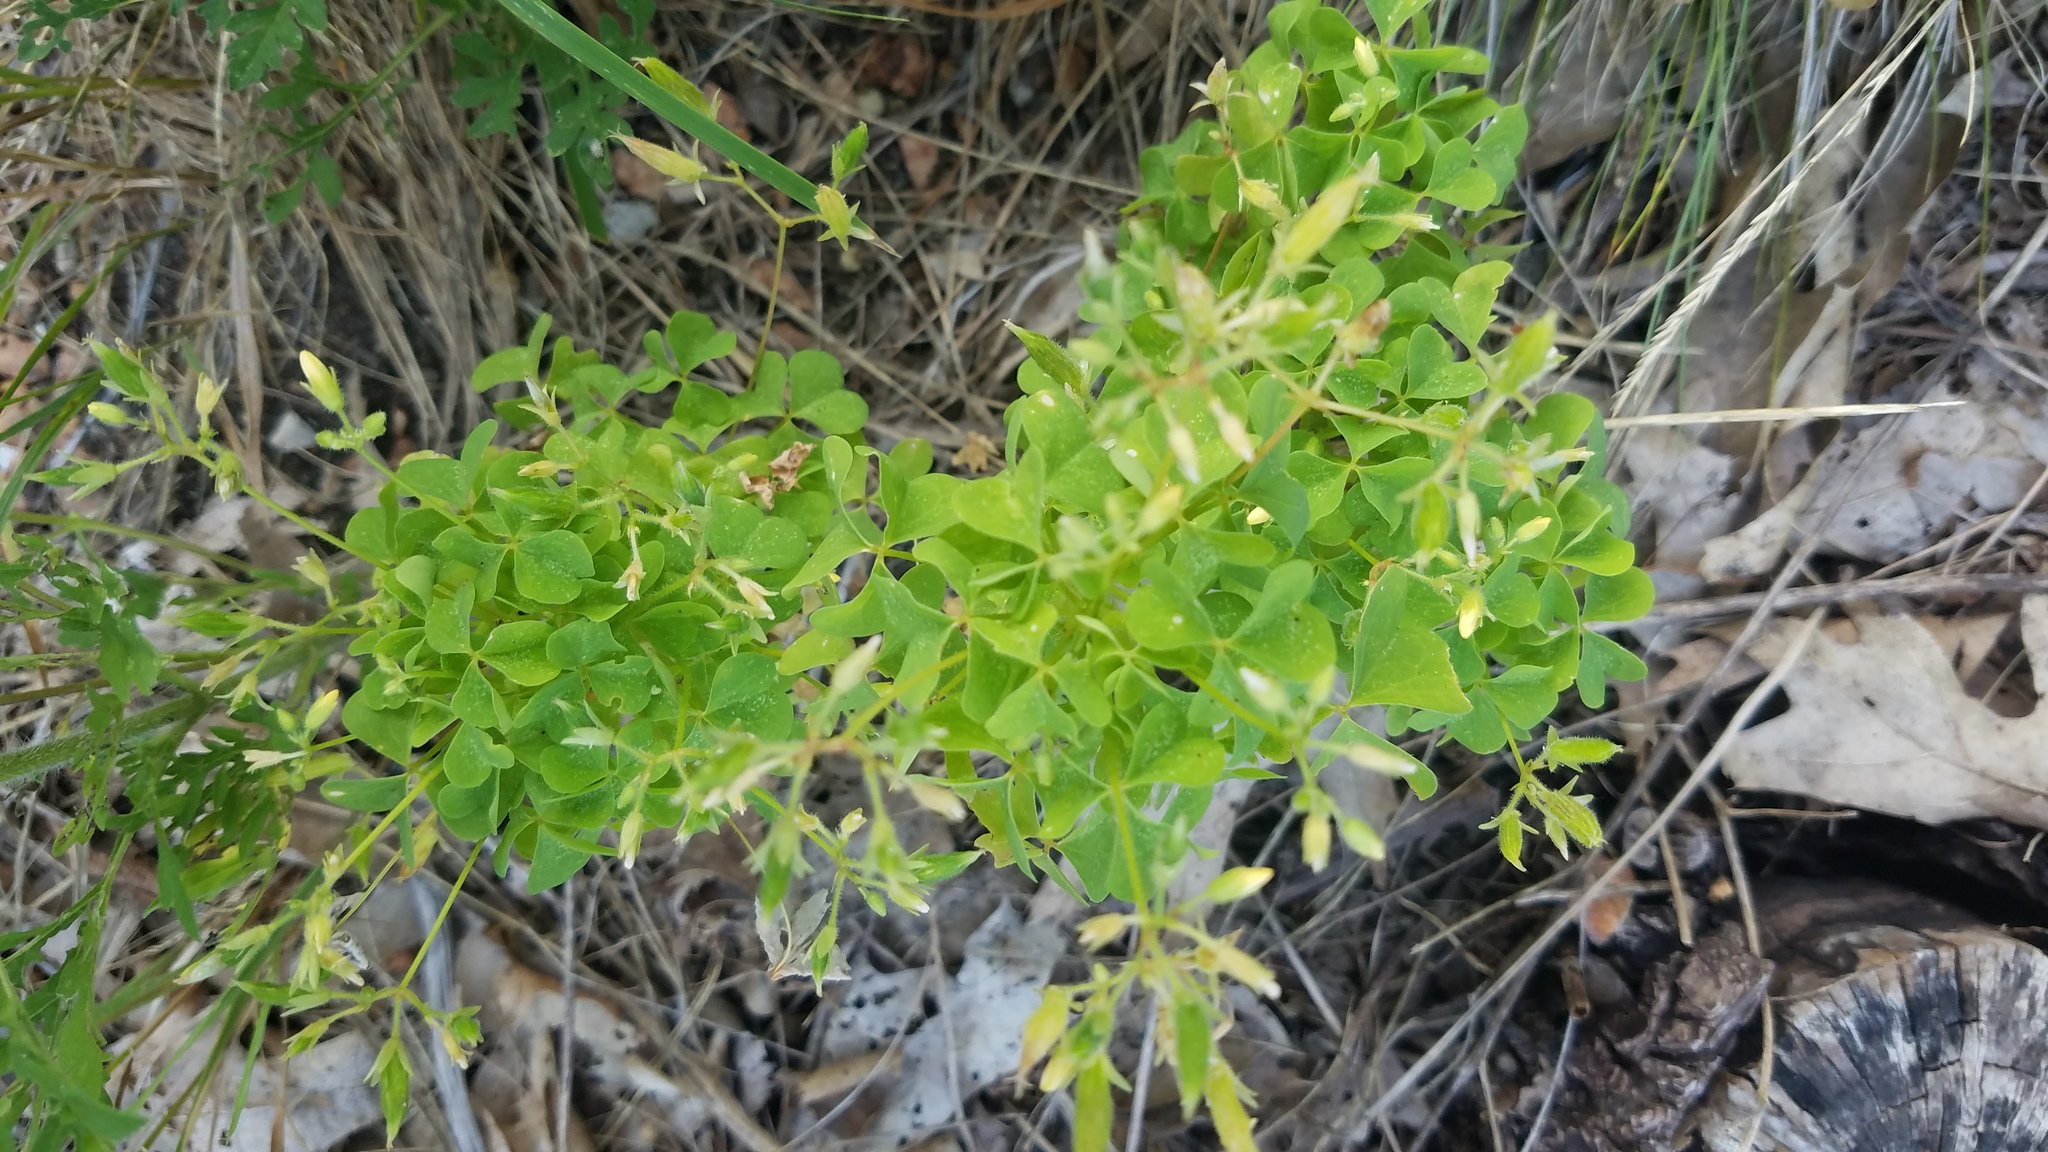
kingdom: Plantae
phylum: Tracheophyta
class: Magnoliopsida
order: Oxalidales
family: Oxalidaceae
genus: Oxalis
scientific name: Oxalis stricta
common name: Upright yellow-sorrel
